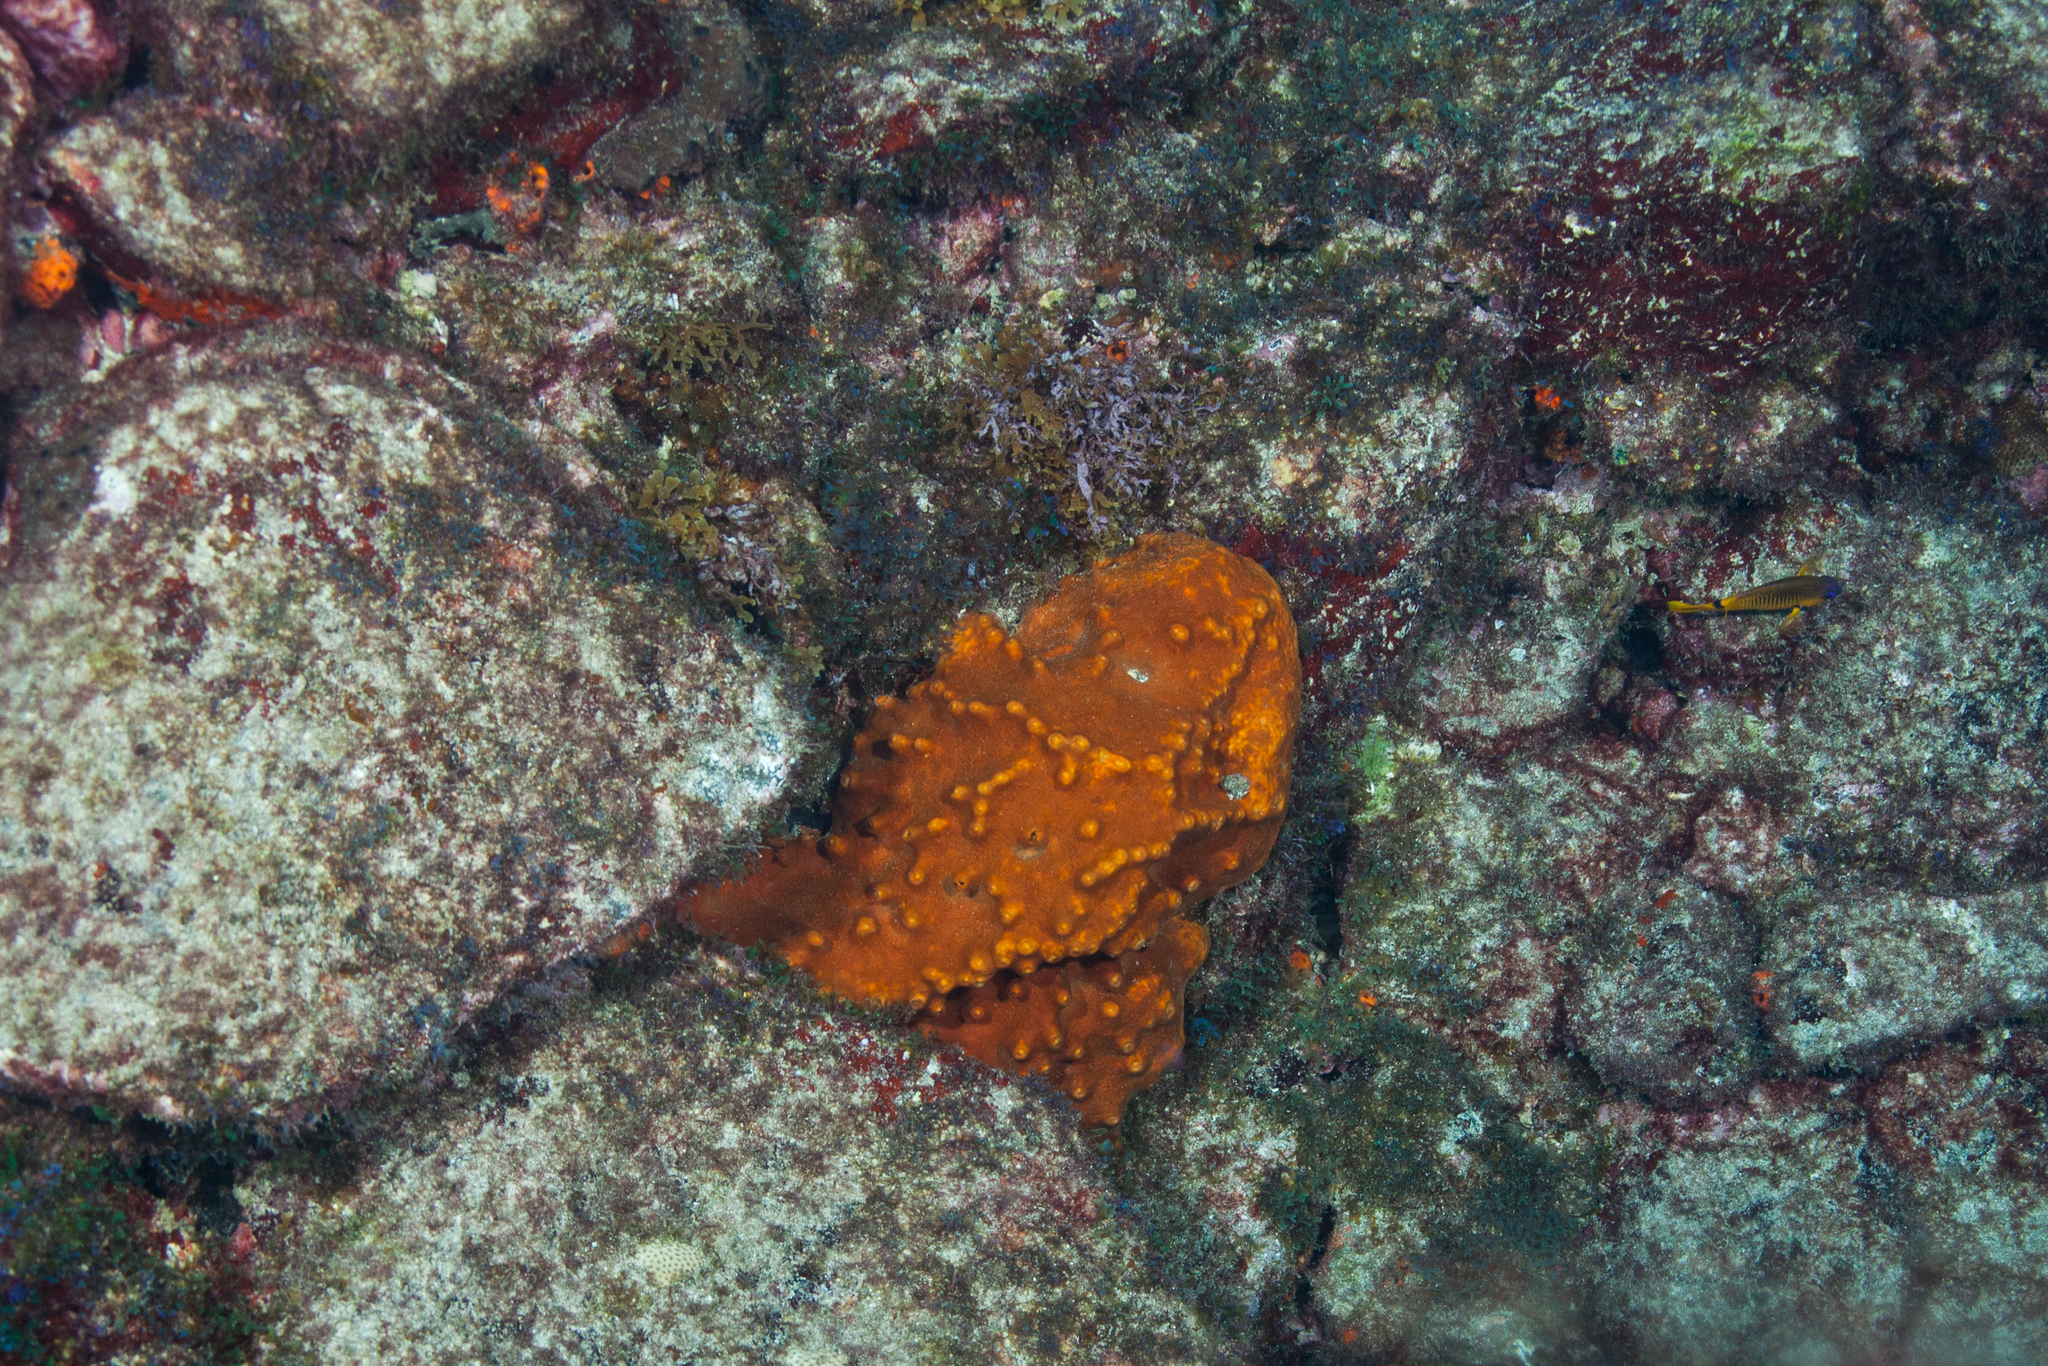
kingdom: Animalia
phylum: Porifera
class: Demospongiae
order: Axinellida
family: Raspailiidae
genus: Ectyoplasia
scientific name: Ectyoplasia ferox
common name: Brown encrusting octopus sponge
